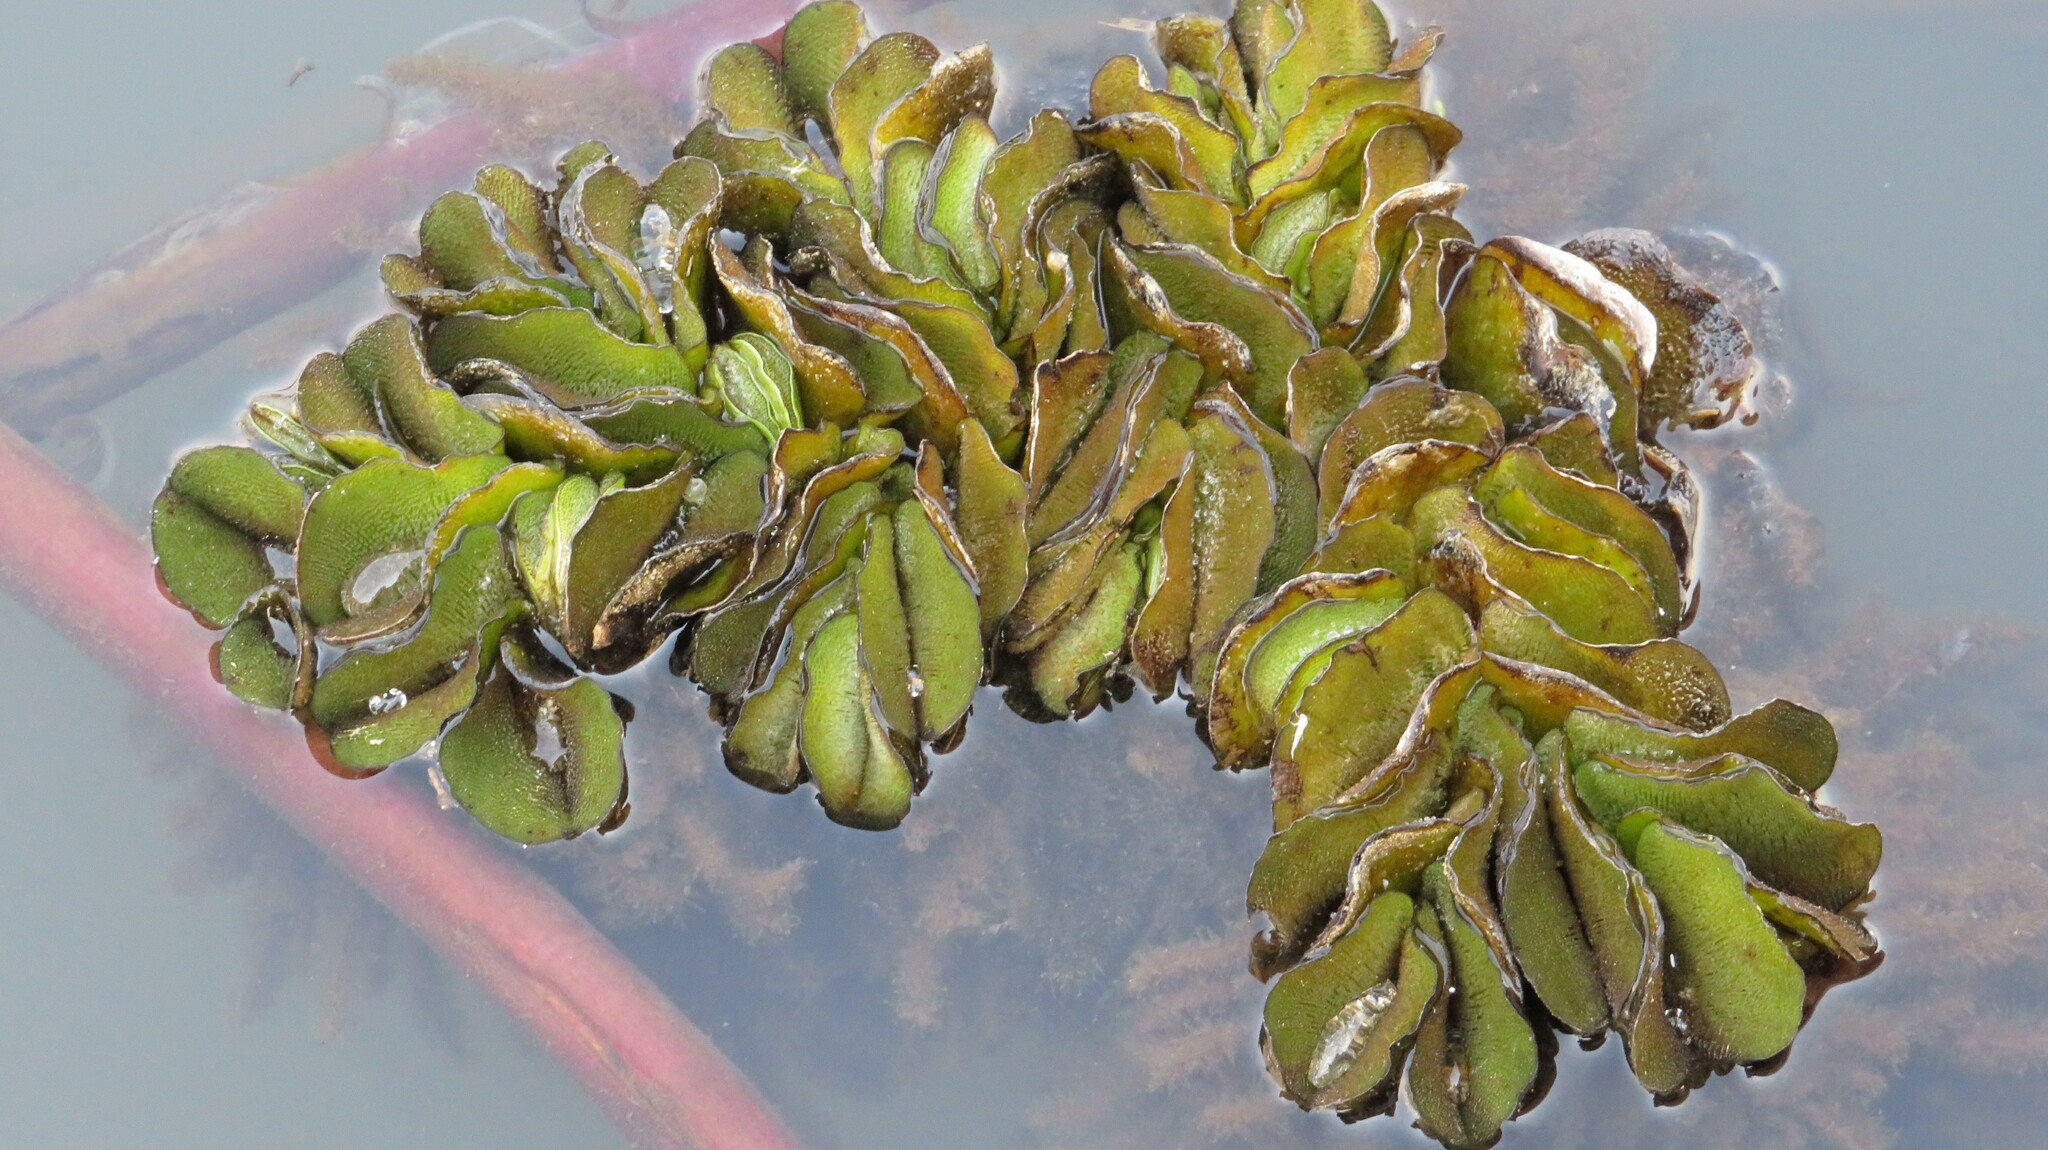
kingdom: Plantae
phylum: Tracheophyta
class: Polypodiopsida
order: Salviniales
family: Salviniaceae
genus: Salvinia
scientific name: Salvinia molesta
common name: Kariba weed
